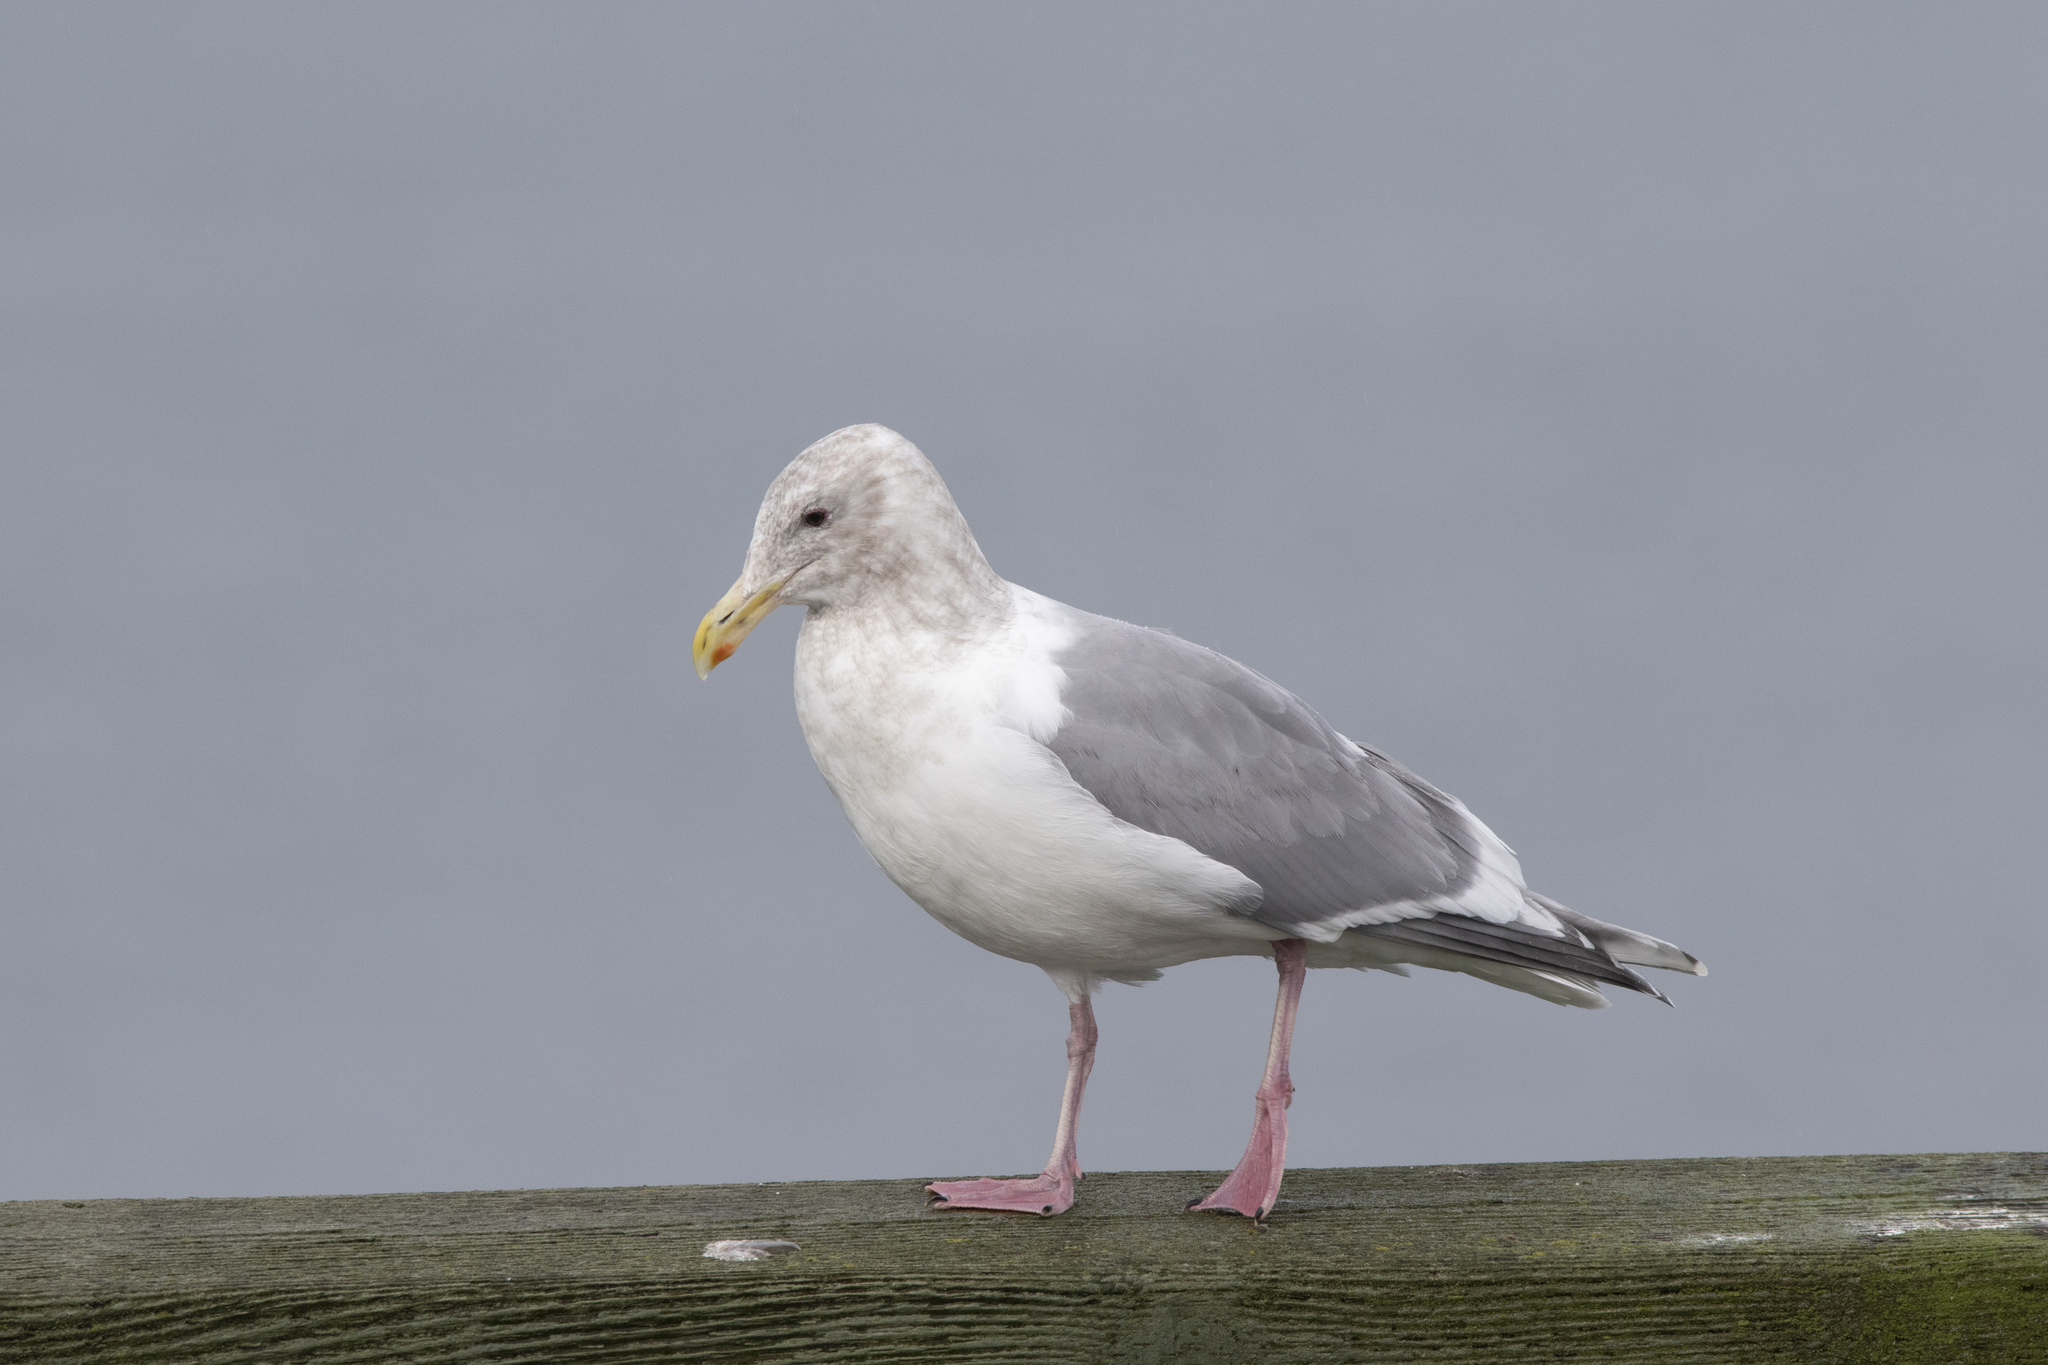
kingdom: Animalia
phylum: Chordata
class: Aves
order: Charadriiformes
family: Laridae
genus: Larus
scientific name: Larus glaucescens
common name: Glaucous-winged gull
